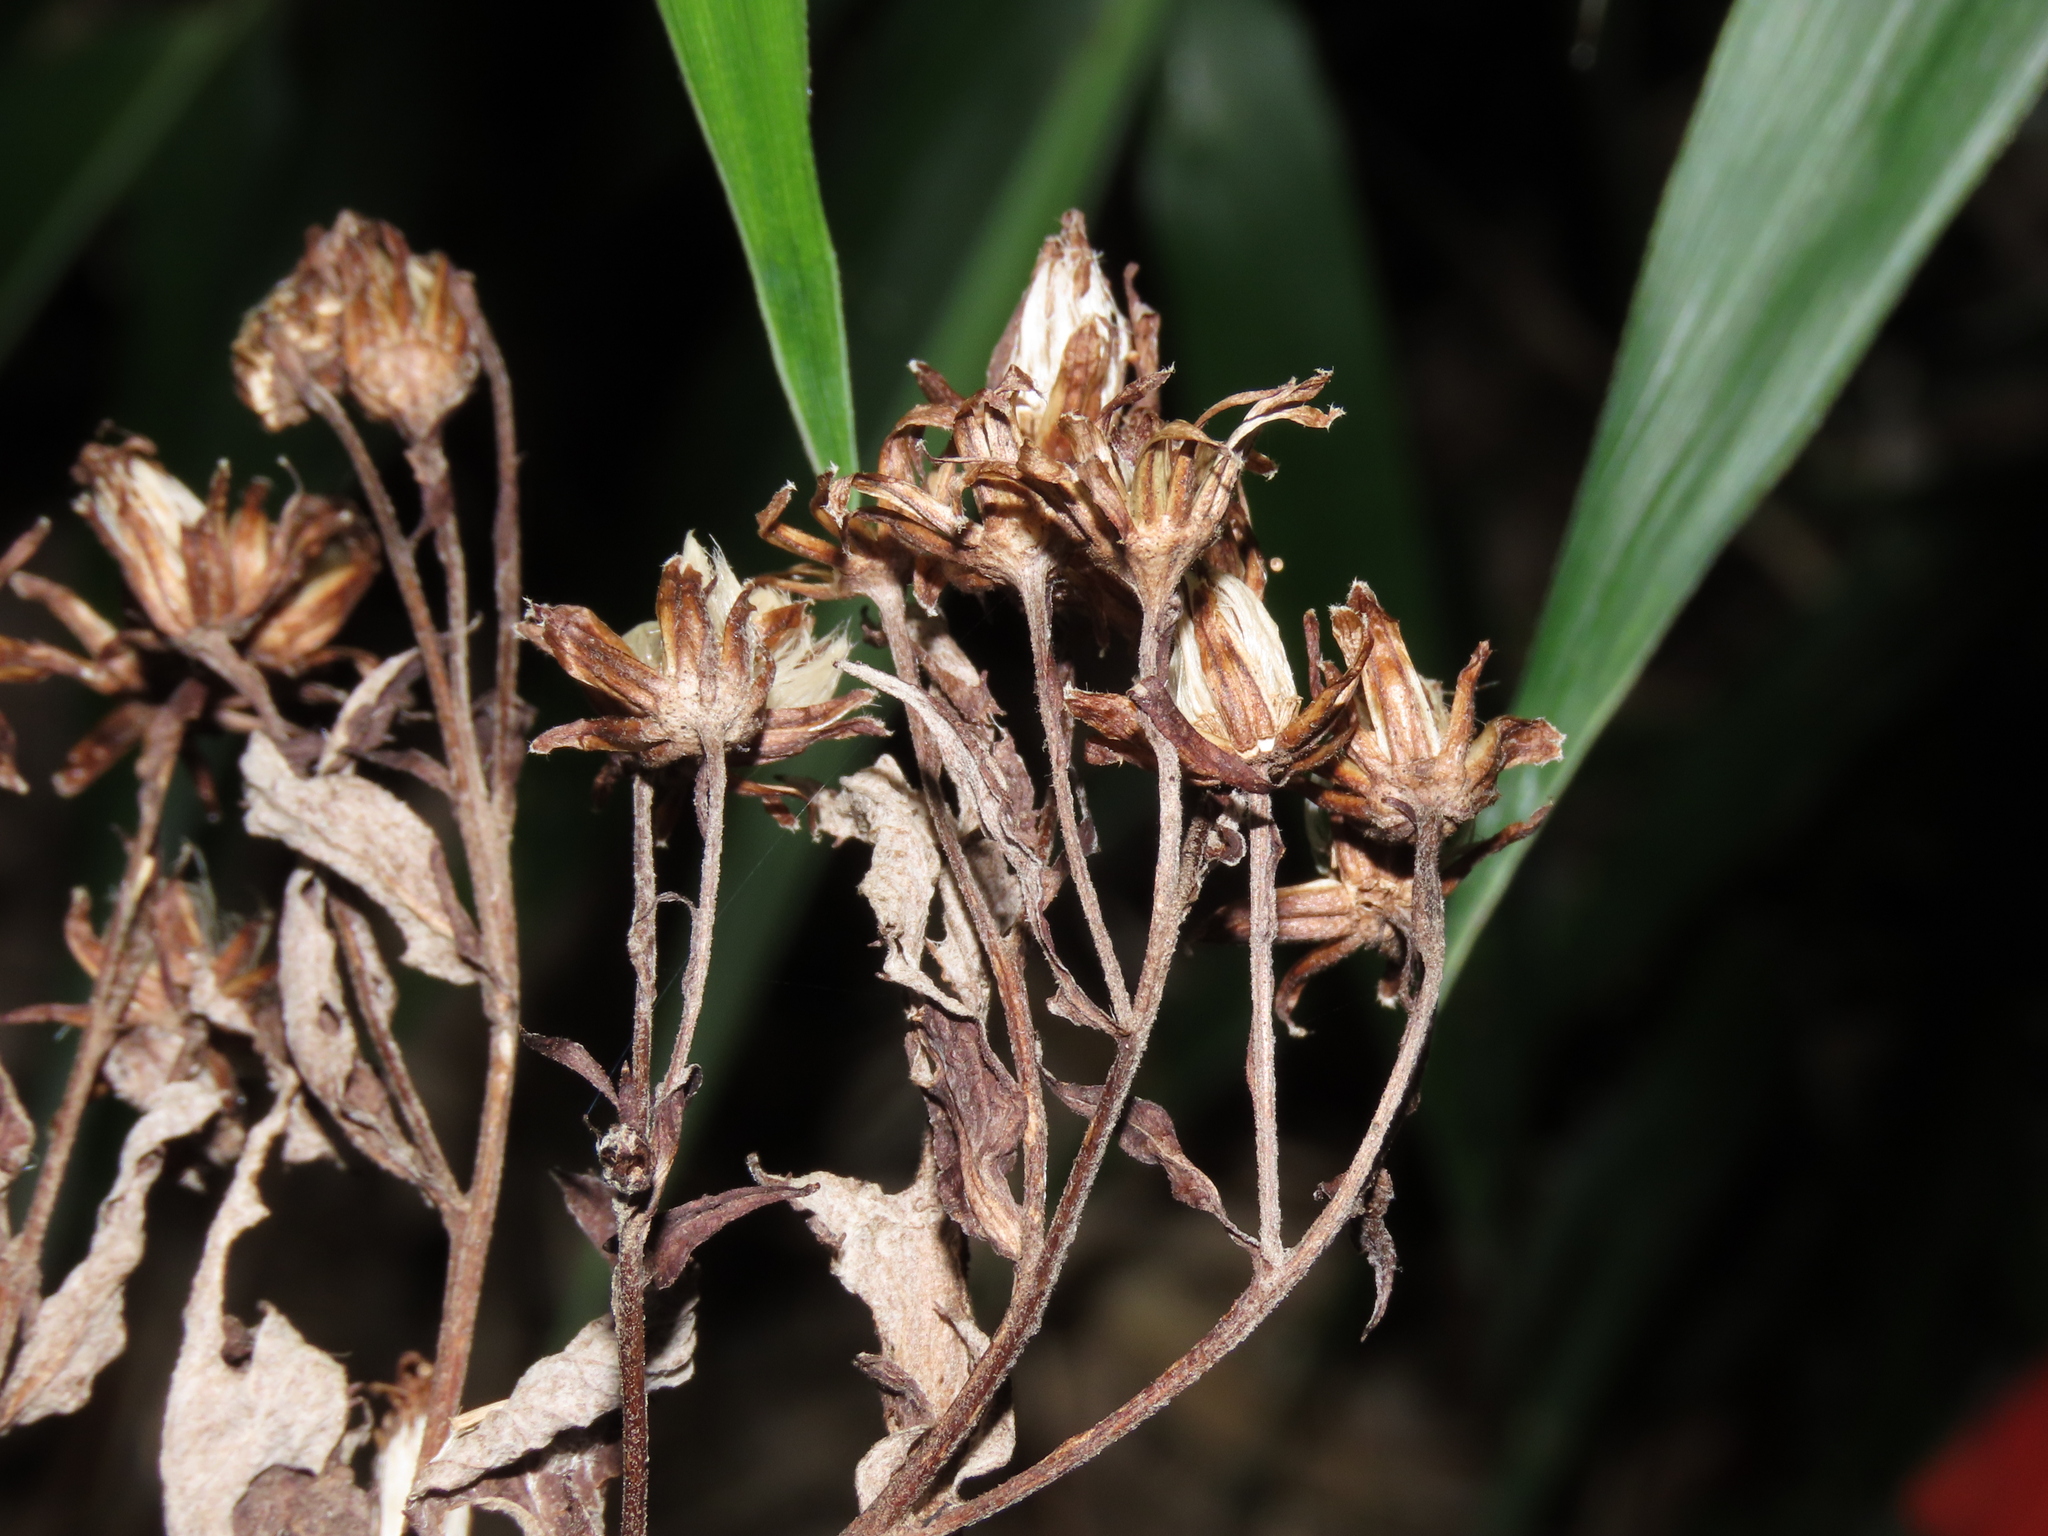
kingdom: Plantae
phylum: Tracheophyta
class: Magnoliopsida
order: Asterales
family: Asteraceae
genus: Acrisione
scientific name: Acrisione cymosa
